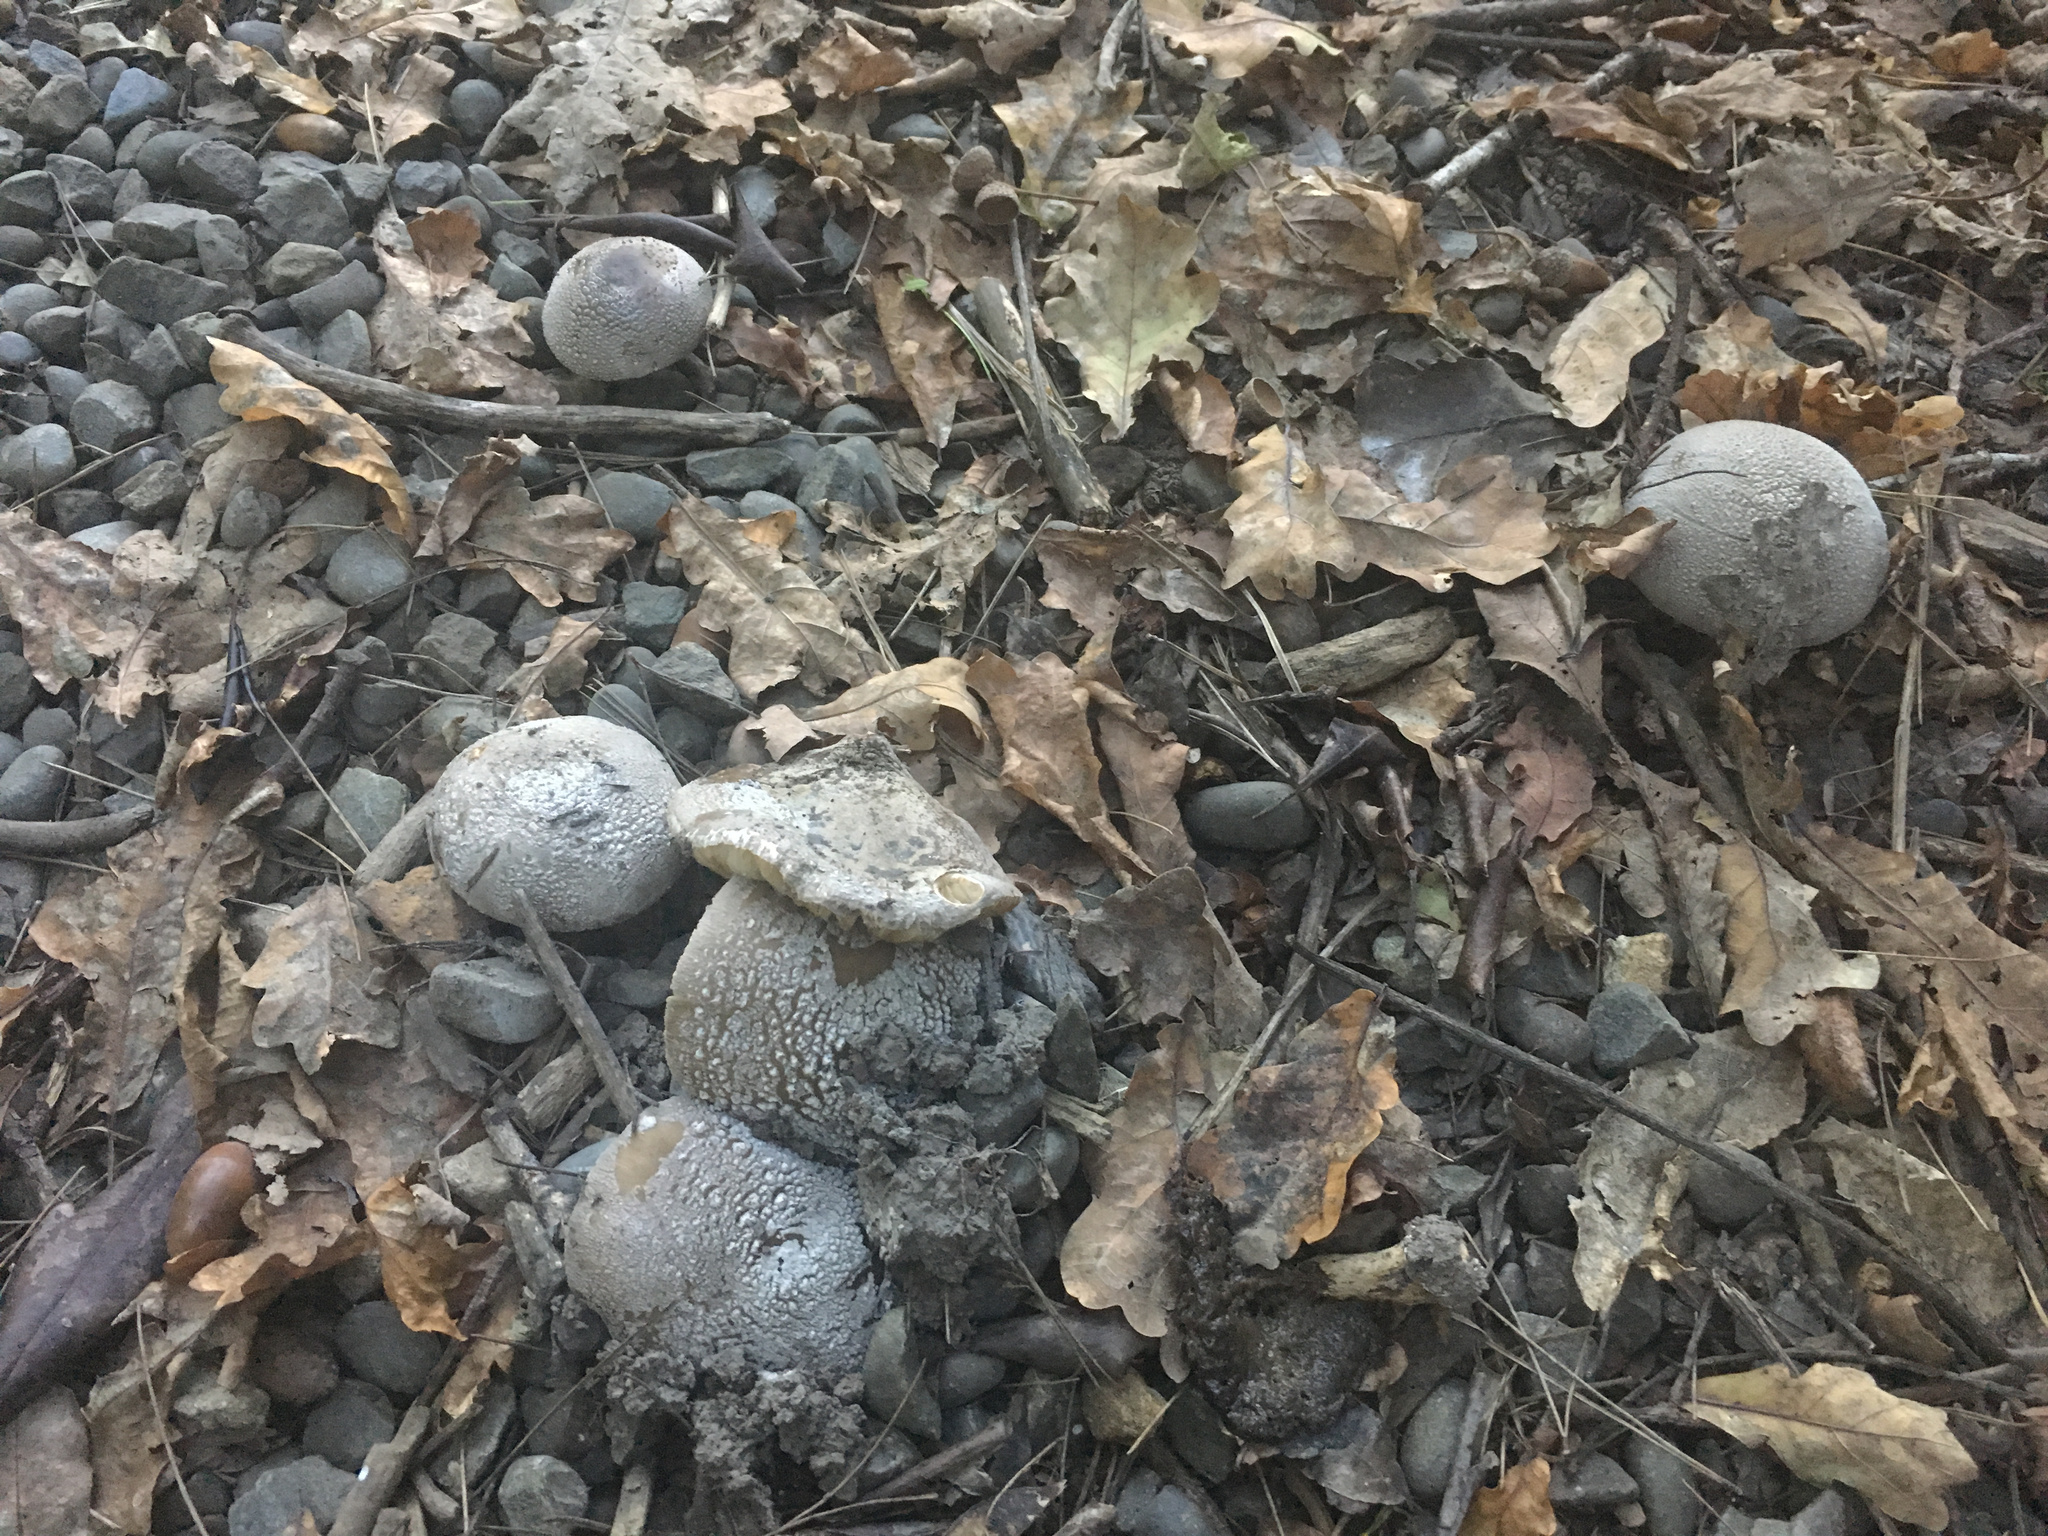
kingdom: Fungi
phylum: Basidiomycota
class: Agaricomycetes
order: Agaricales
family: Amanitaceae
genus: Amanita
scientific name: Amanita excelsa
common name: European false blusher
